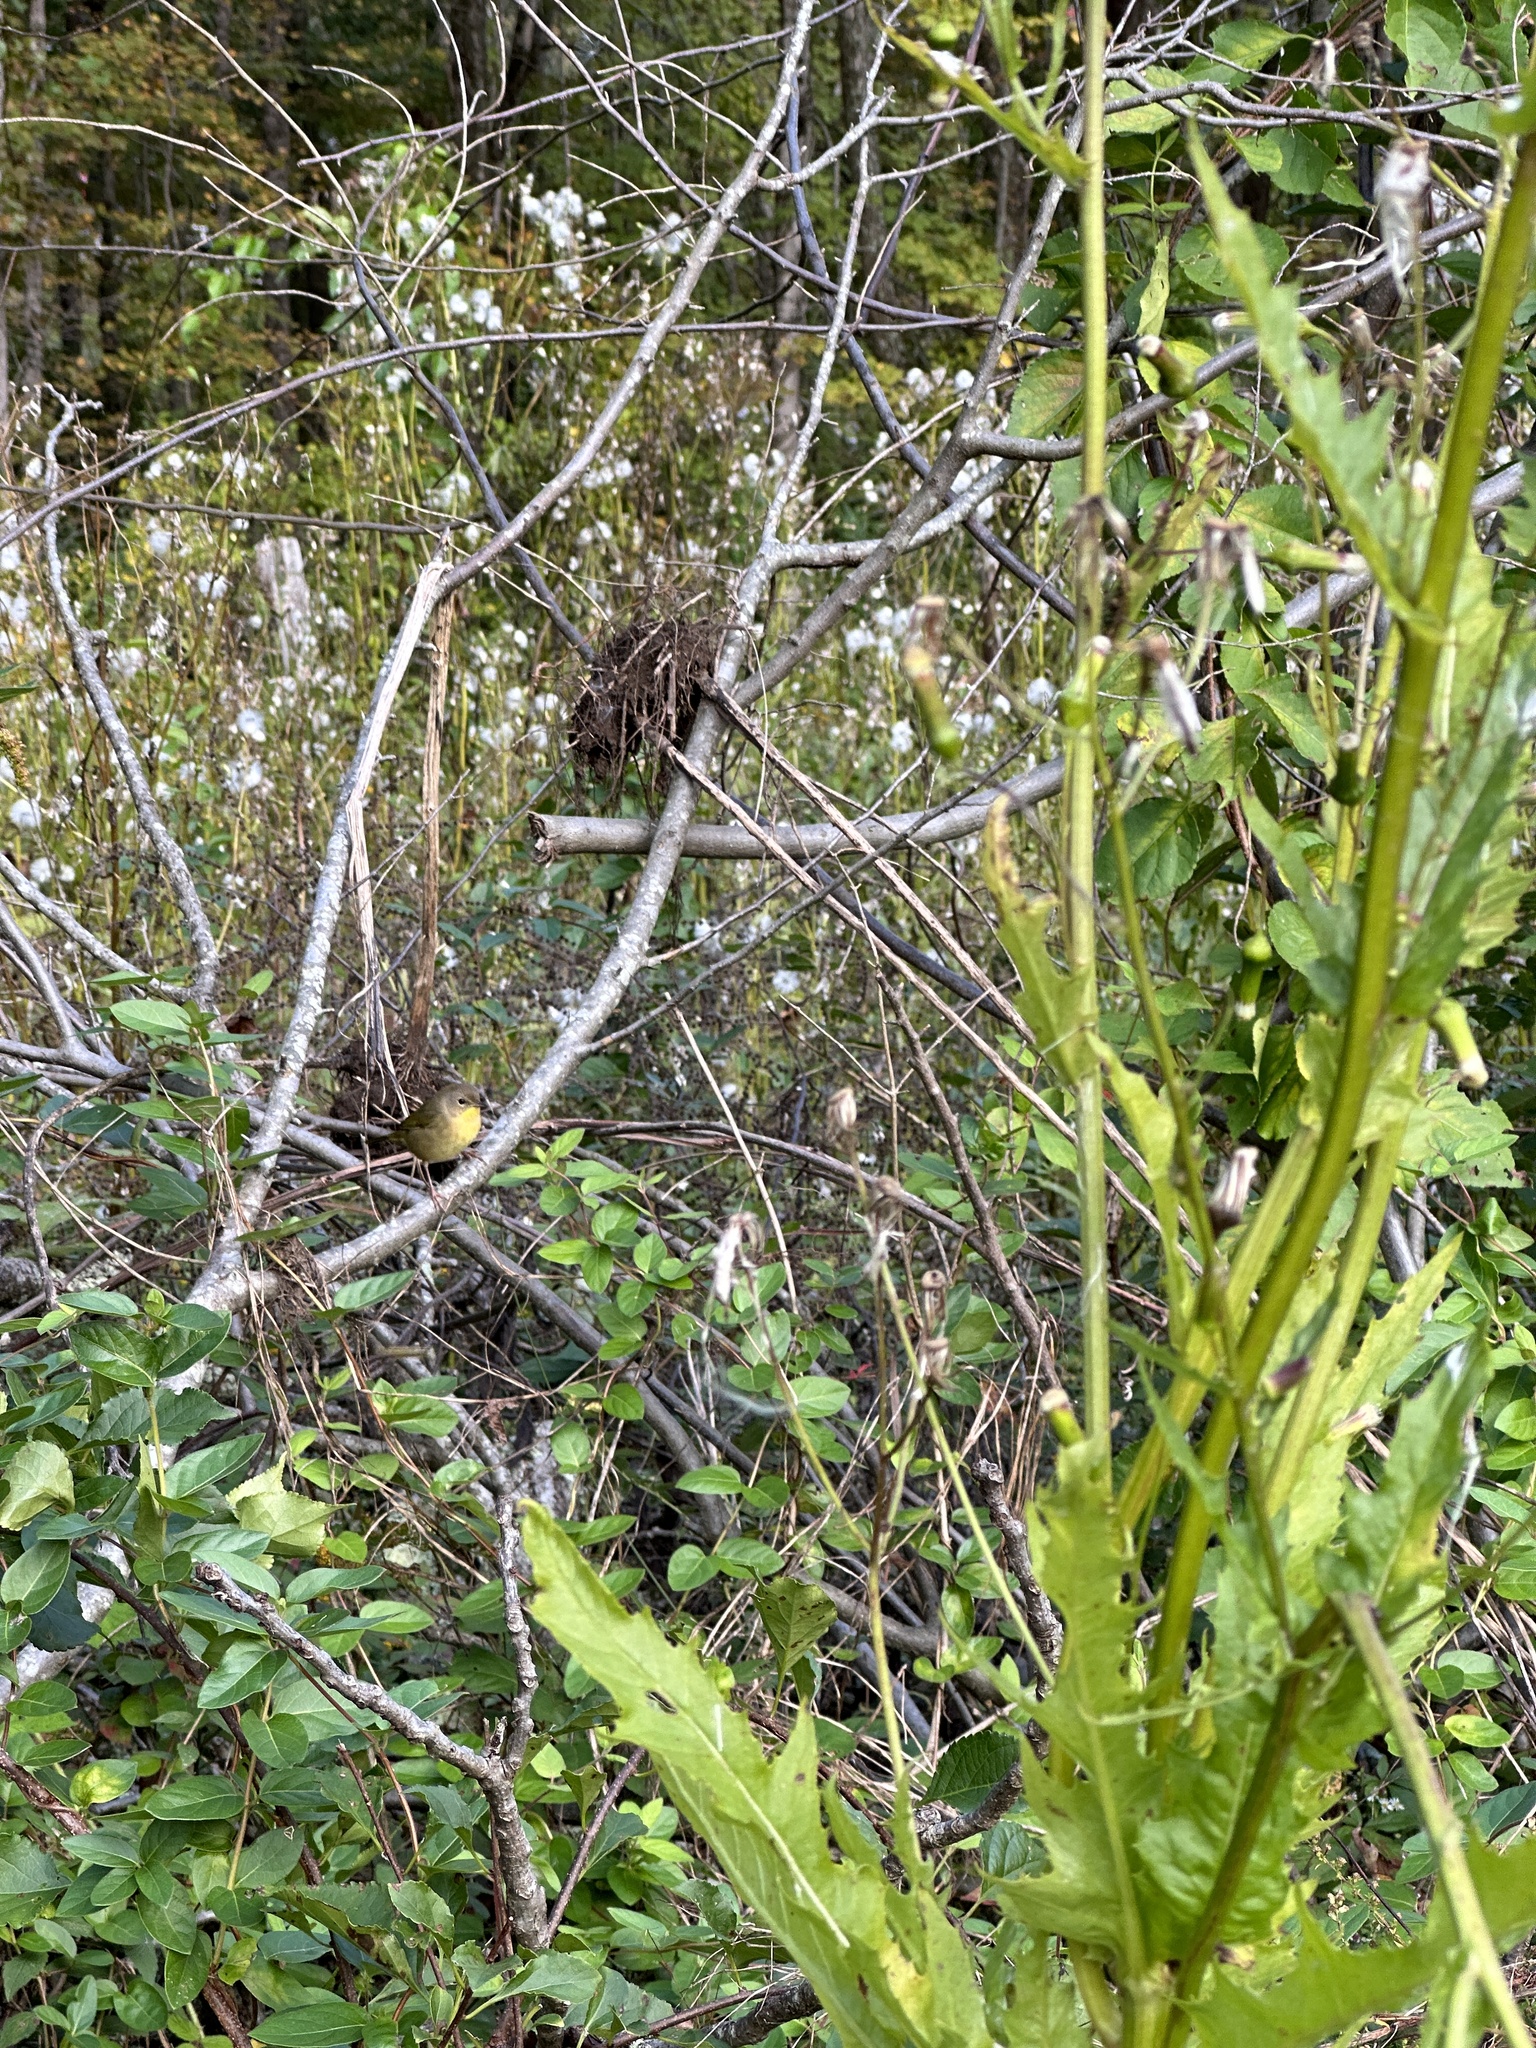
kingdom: Animalia
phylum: Chordata
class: Aves
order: Passeriformes
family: Parulidae
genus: Geothlypis
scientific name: Geothlypis trichas
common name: Common yellowthroat
